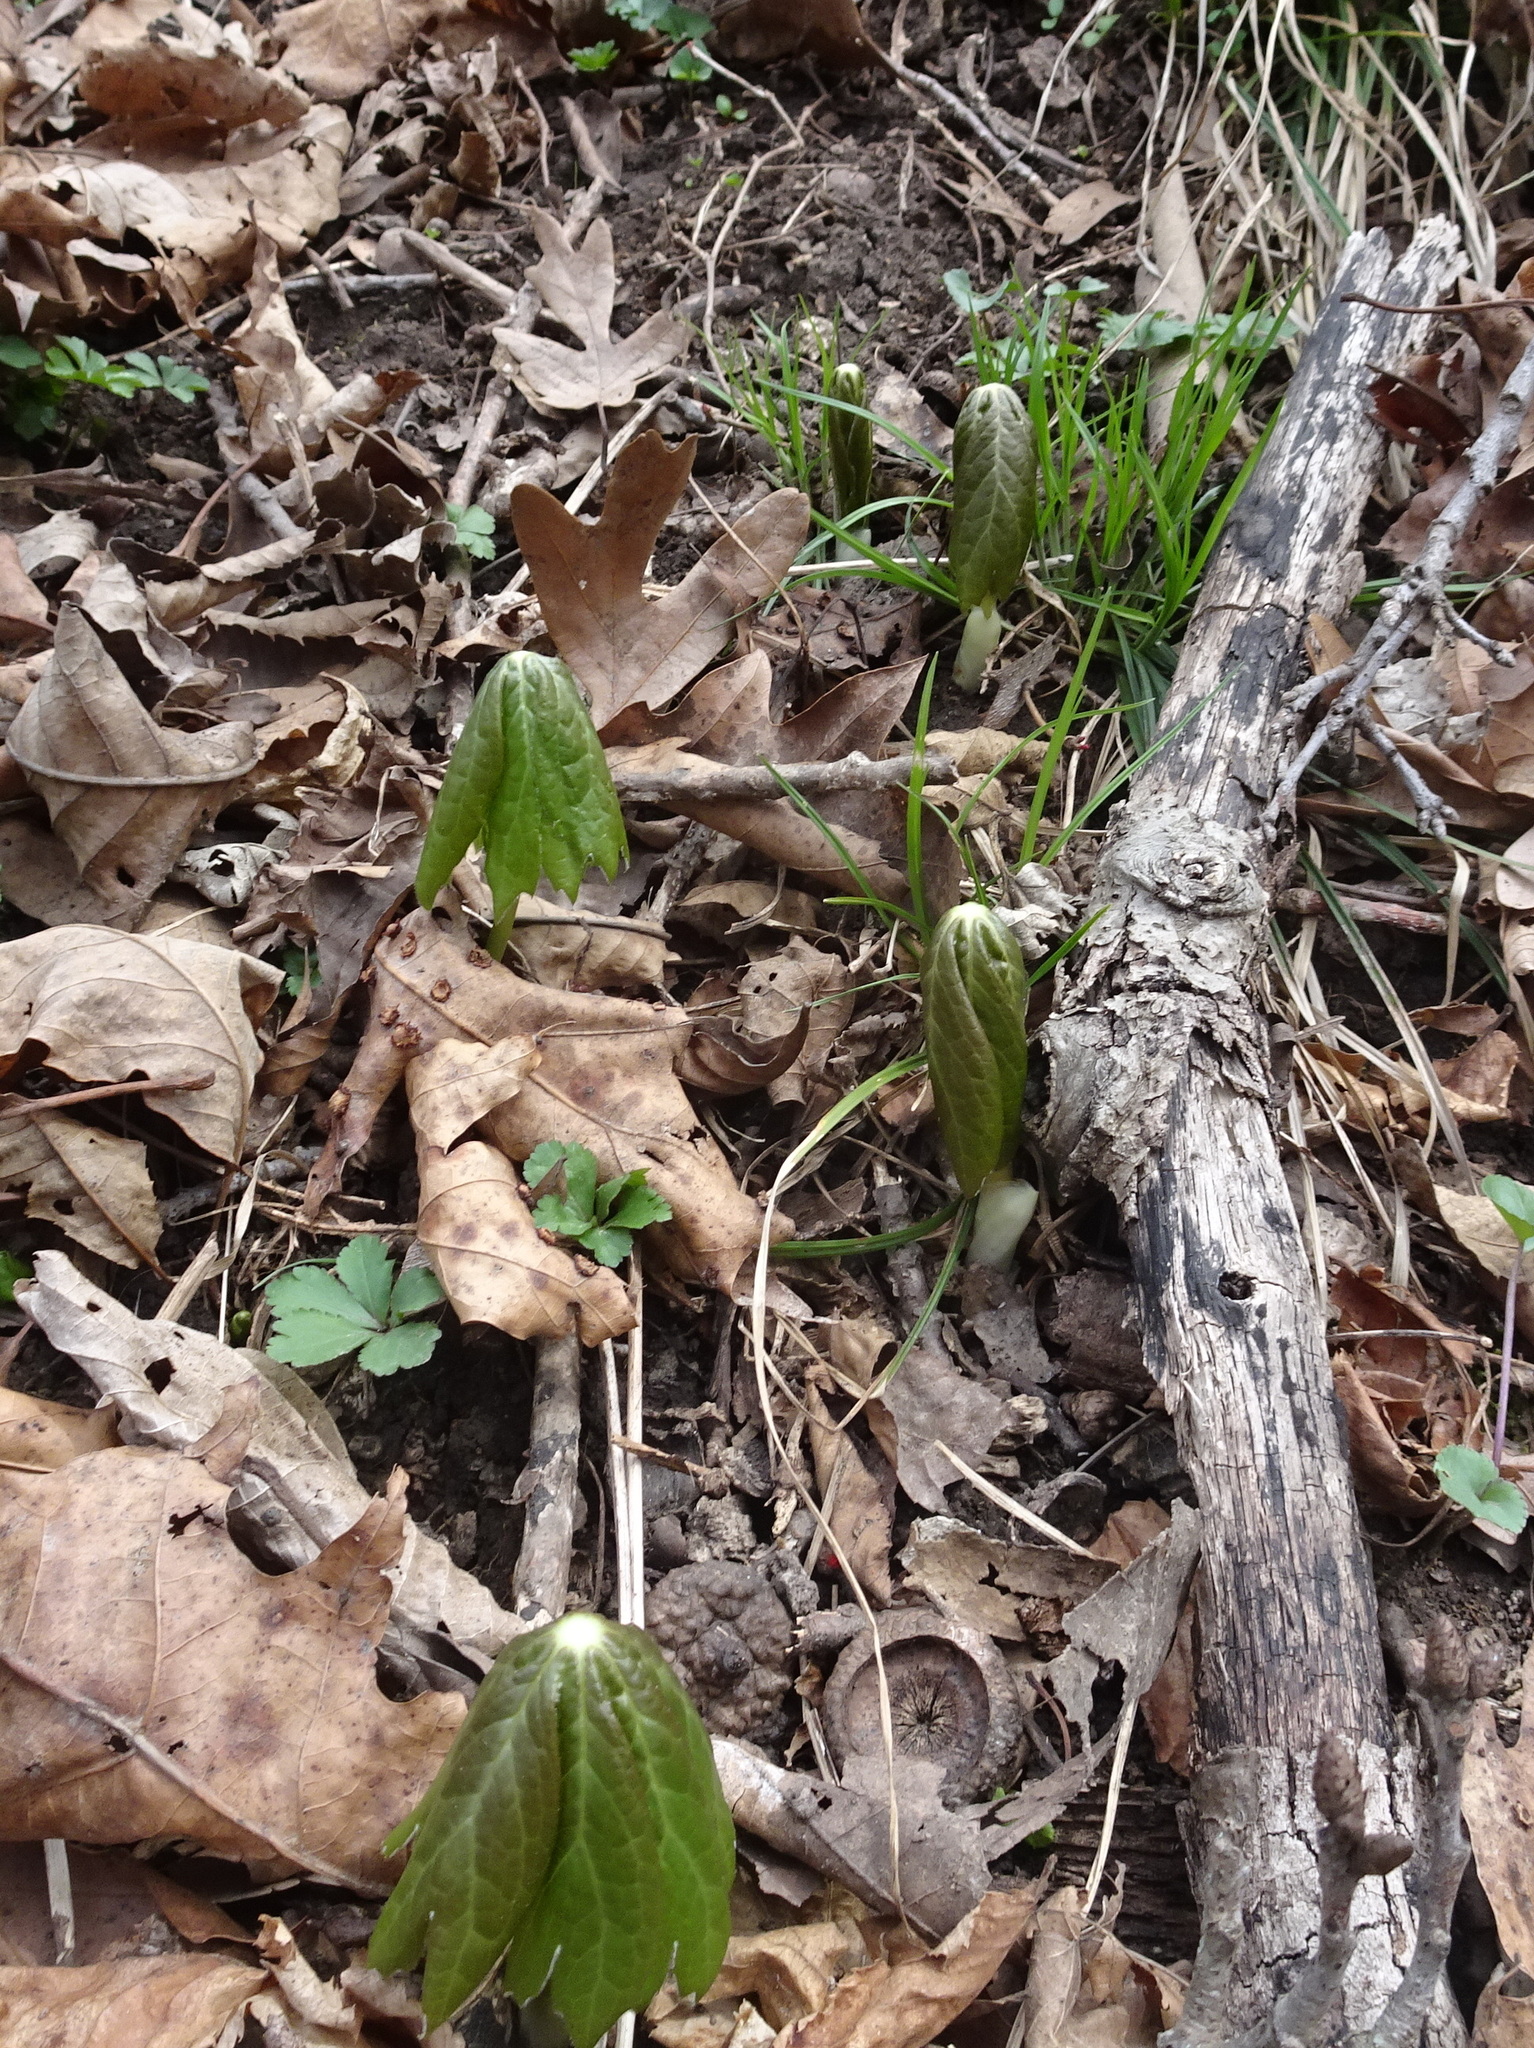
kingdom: Plantae
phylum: Tracheophyta
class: Magnoliopsida
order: Ranunculales
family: Berberidaceae
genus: Podophyllum
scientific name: Podophyllum peltatum
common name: Wild mandrake
